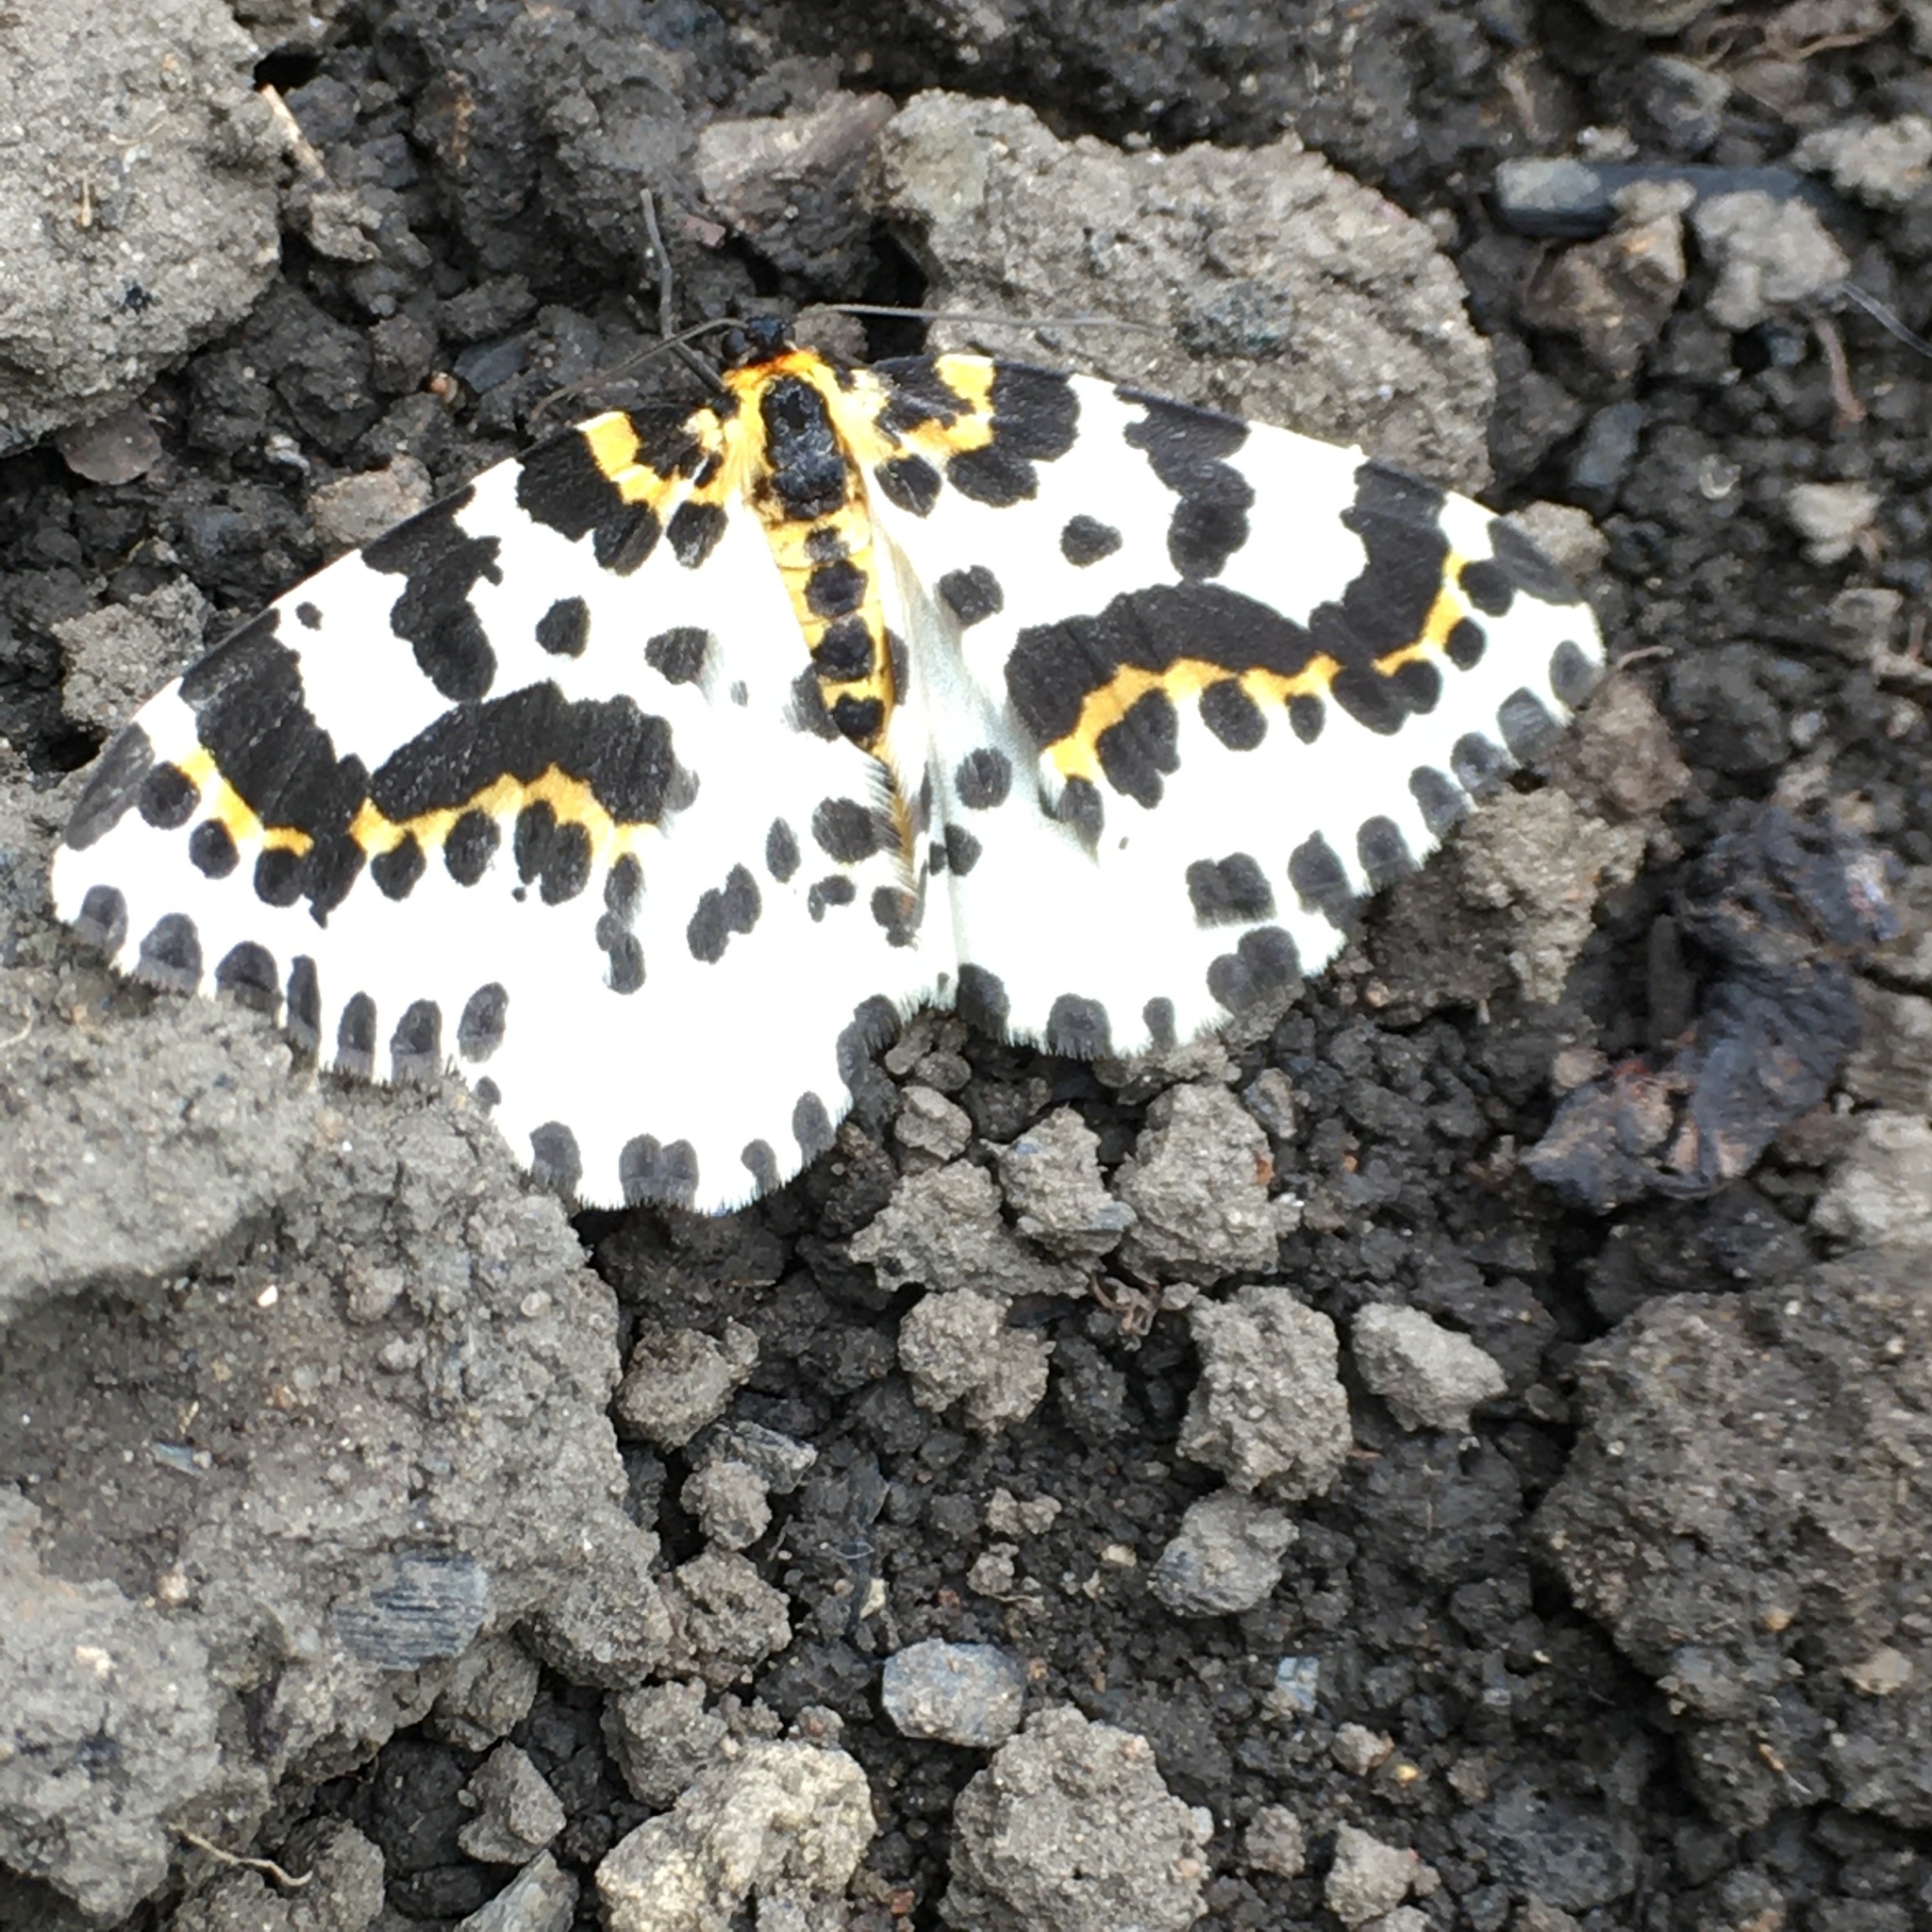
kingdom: Animalia
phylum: Arthropoda
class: Insecta
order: Lepidoptera
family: Geometridae
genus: Abraxas
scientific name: Abraxas grossulariata
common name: Magpie
